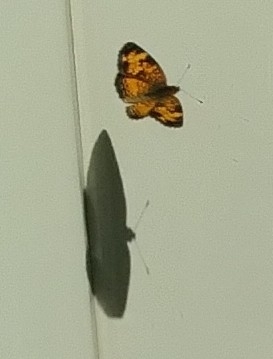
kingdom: Animalia
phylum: Arthropoda
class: Insecta
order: Lepidoptera
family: Nymphalidae
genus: Phyciodes
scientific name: Phyciodes tharos
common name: Pearl crescent
